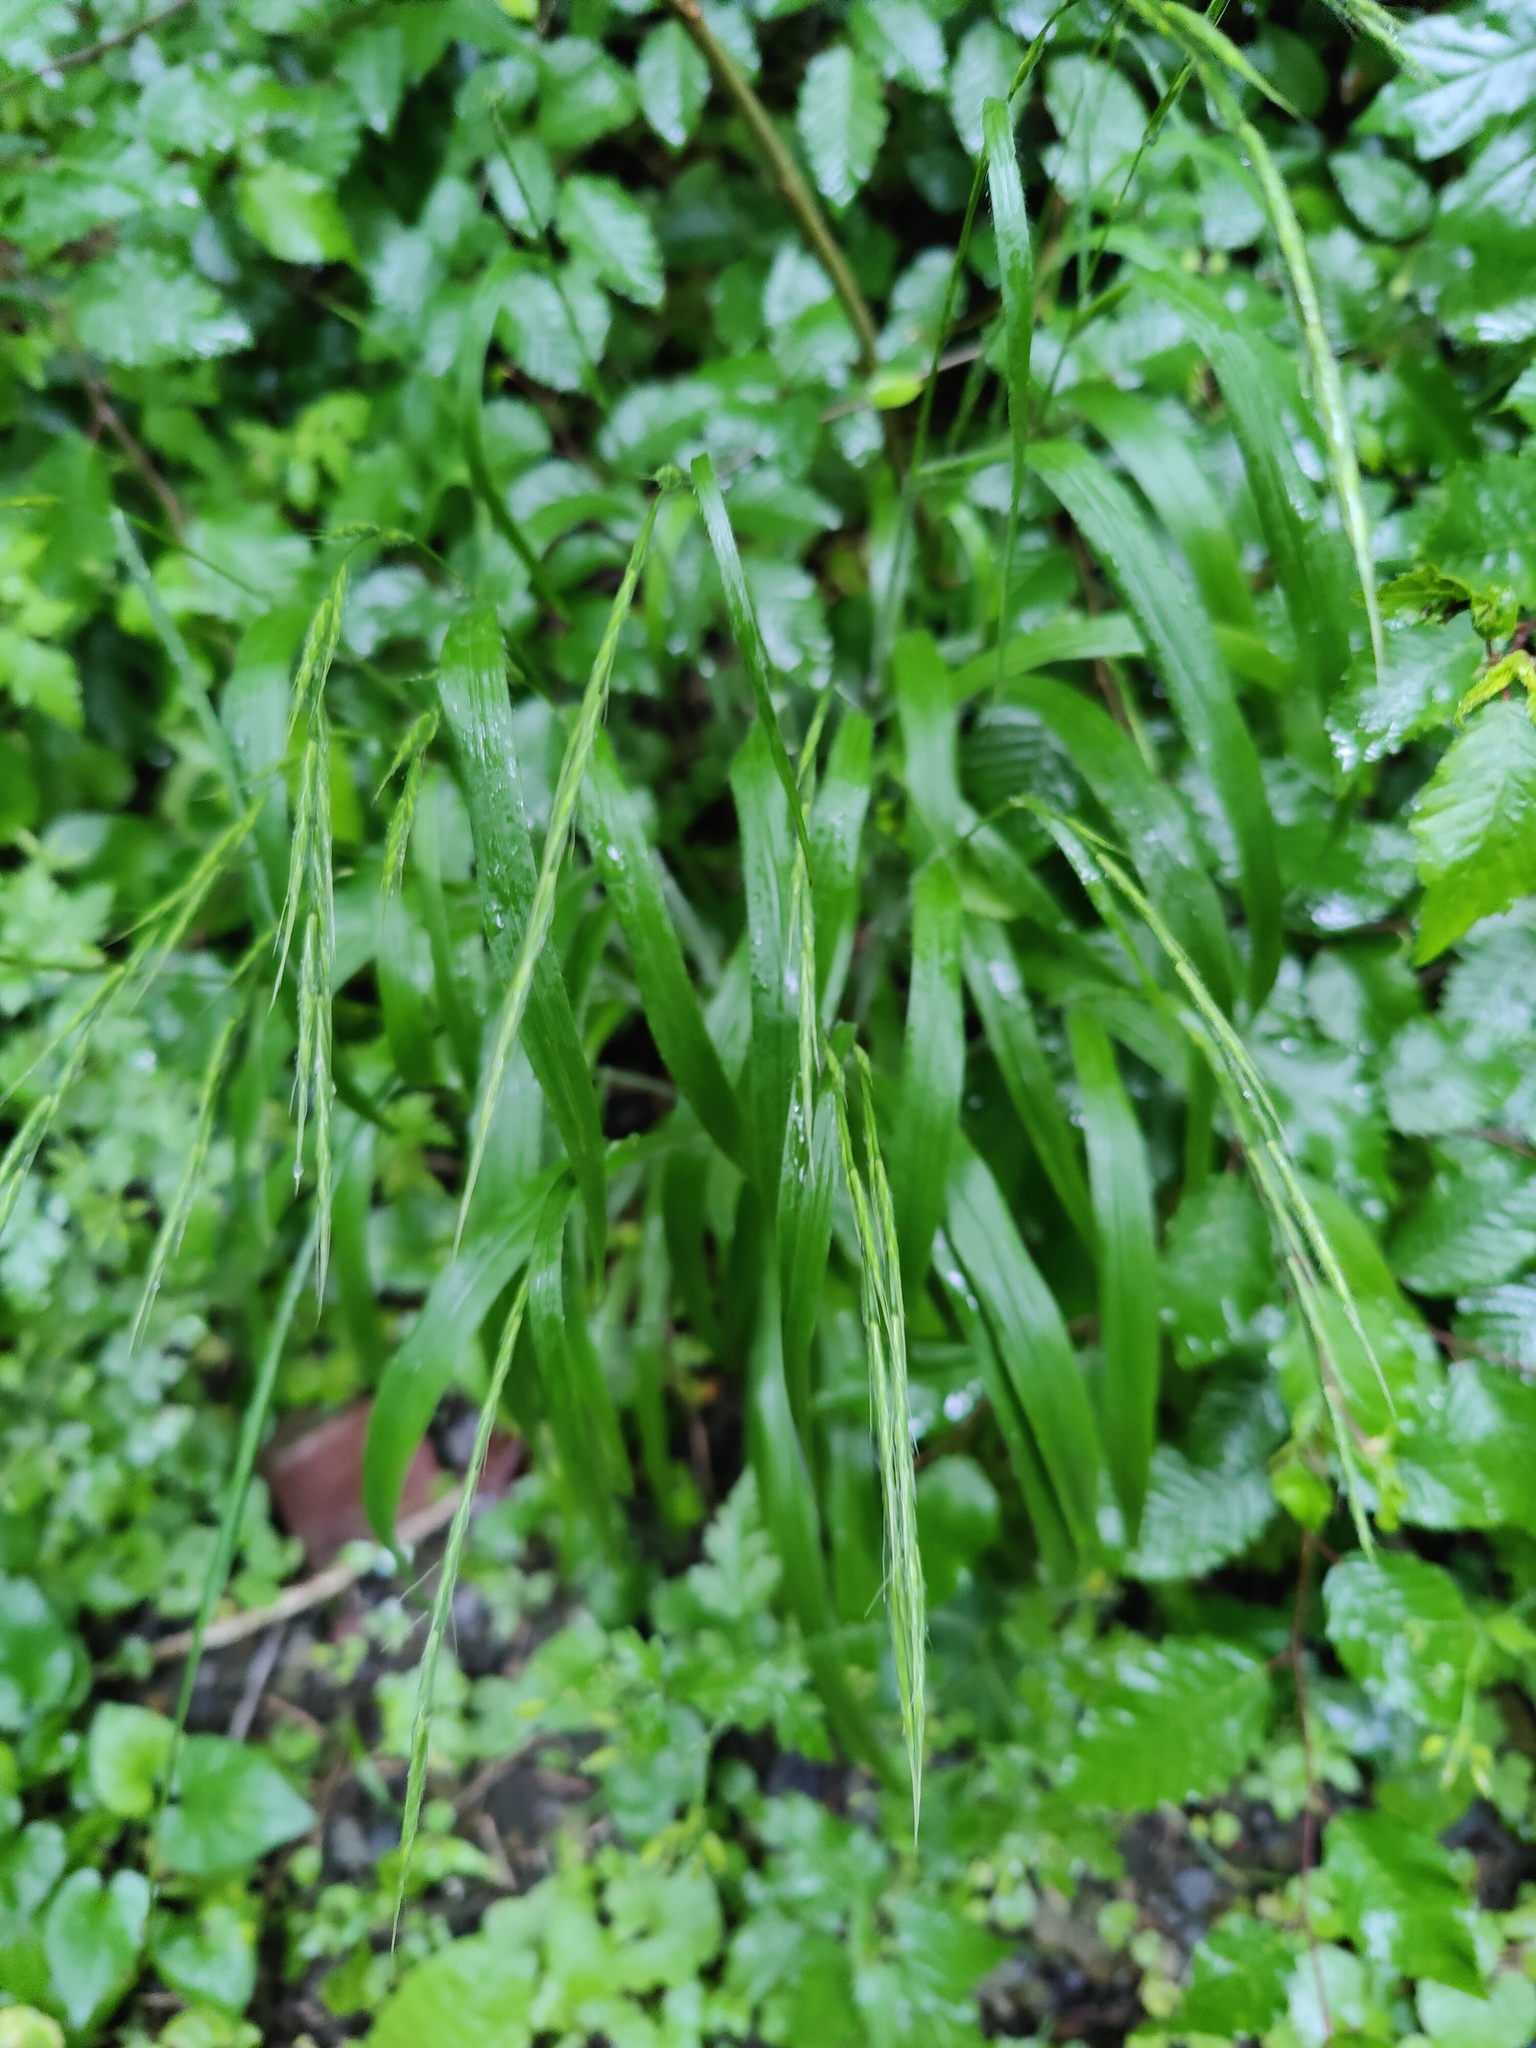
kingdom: Plantae
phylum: Tracheophyta
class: Liliopsida
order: Poales
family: Poaceae
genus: Brachypodium
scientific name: Brachypodium sylvaticum
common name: False-brome
